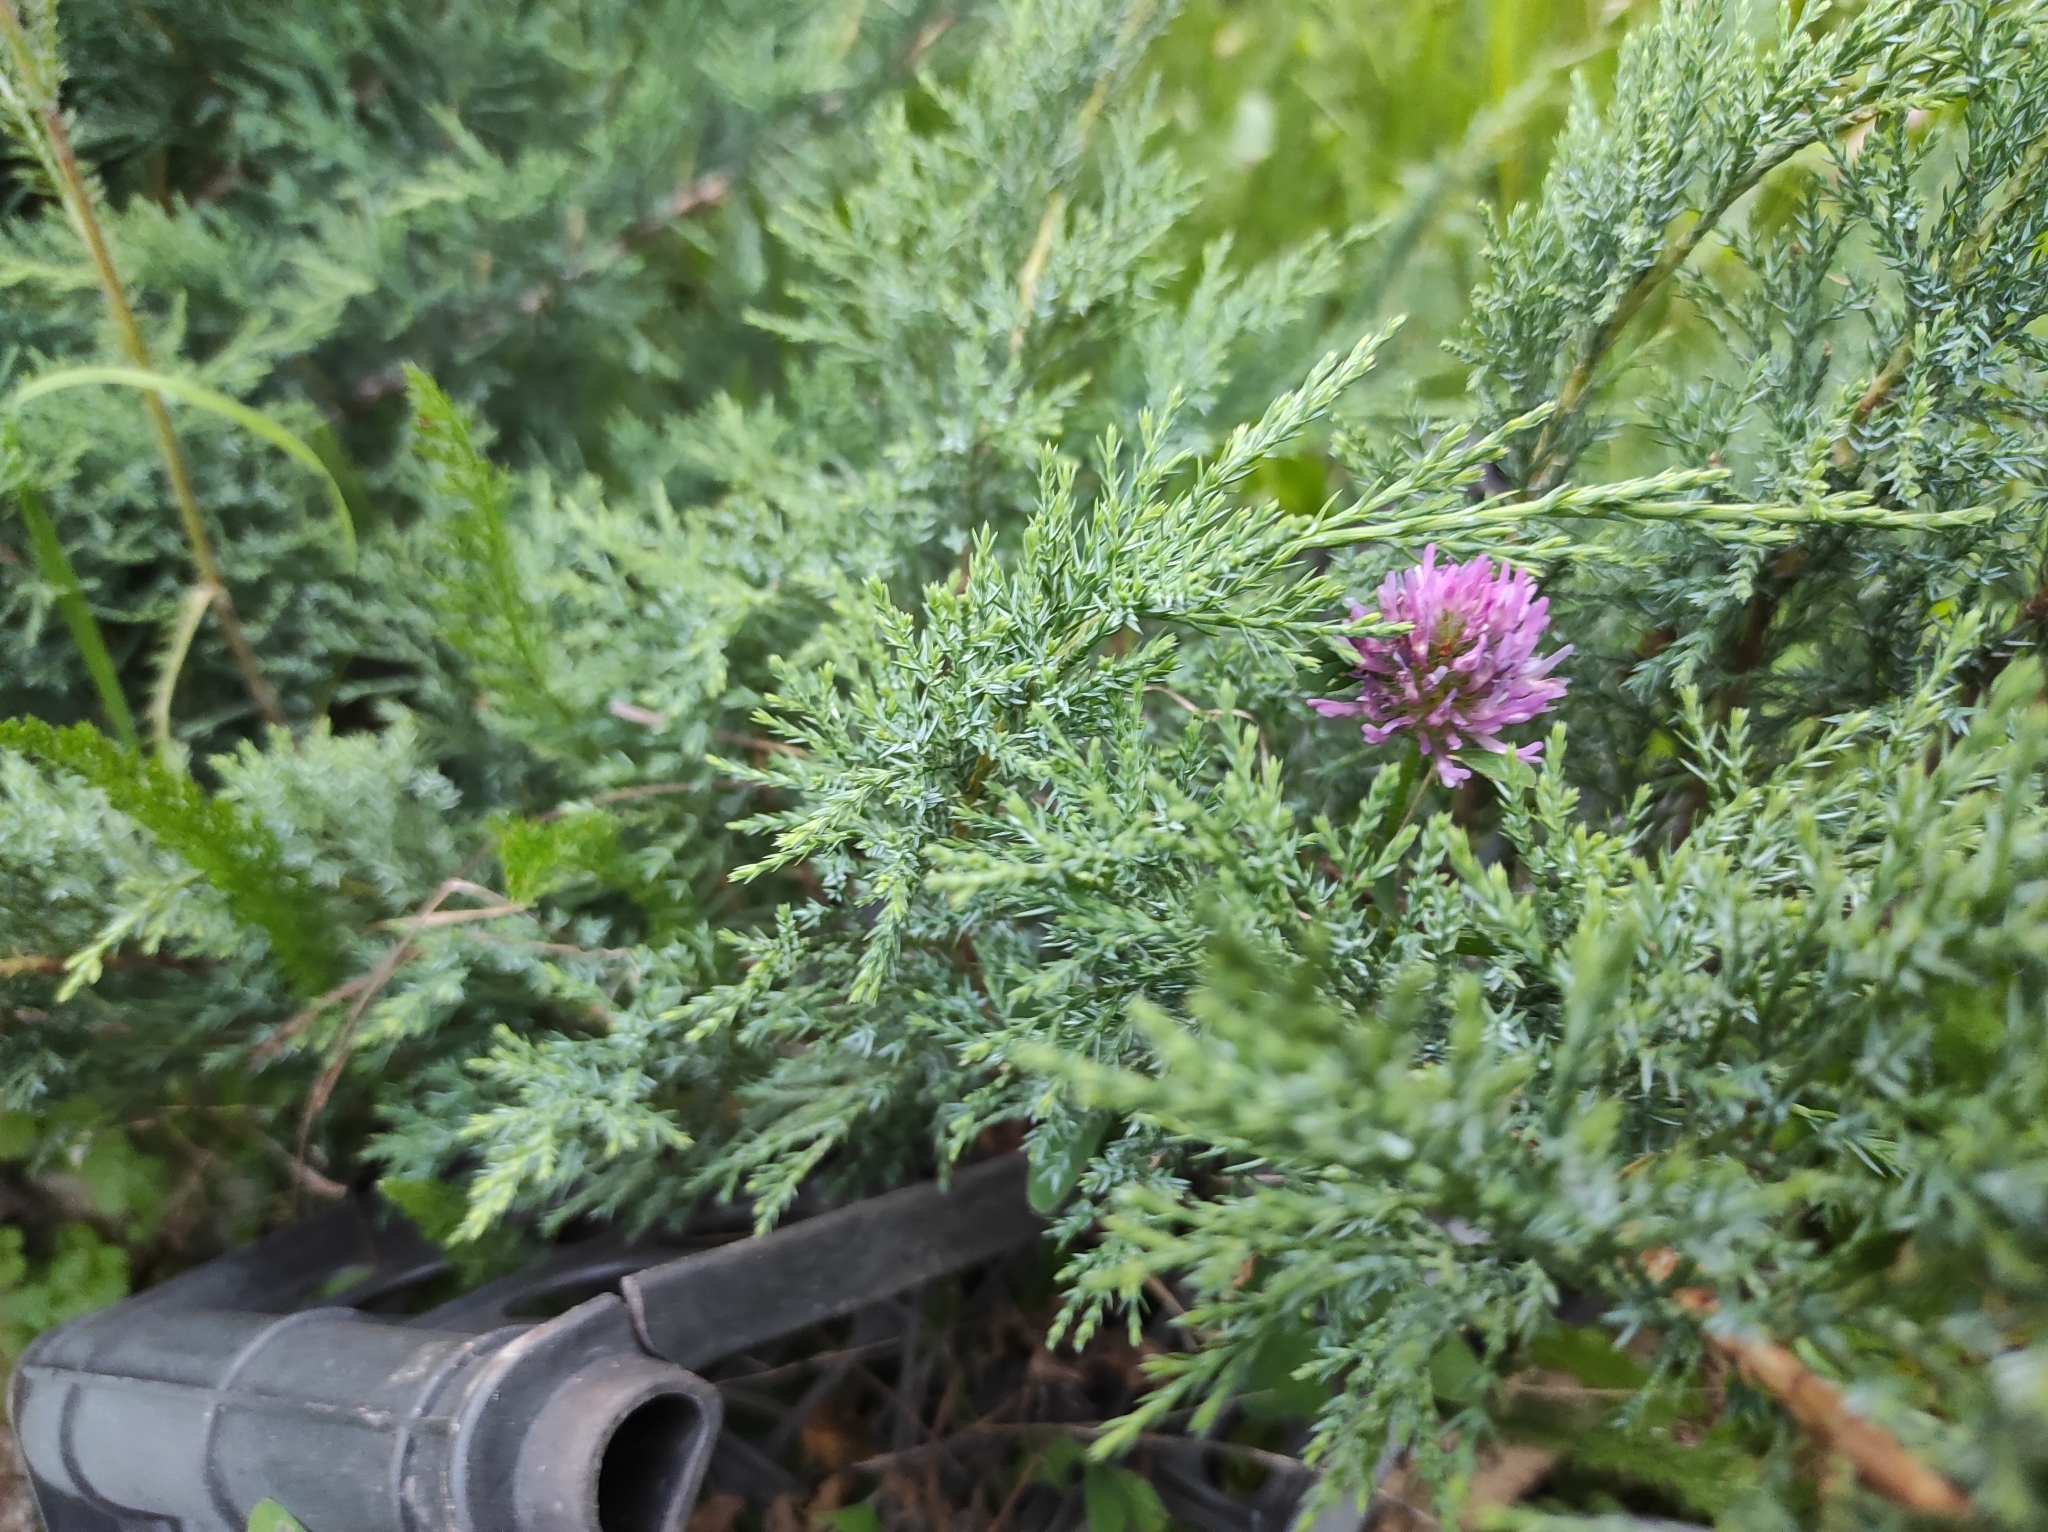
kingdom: Plantae
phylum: Tracheophyta
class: Magnoliopsida
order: Fabales
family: Fabaceae
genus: Trifolium
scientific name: Trifolium pratense
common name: Red clover
